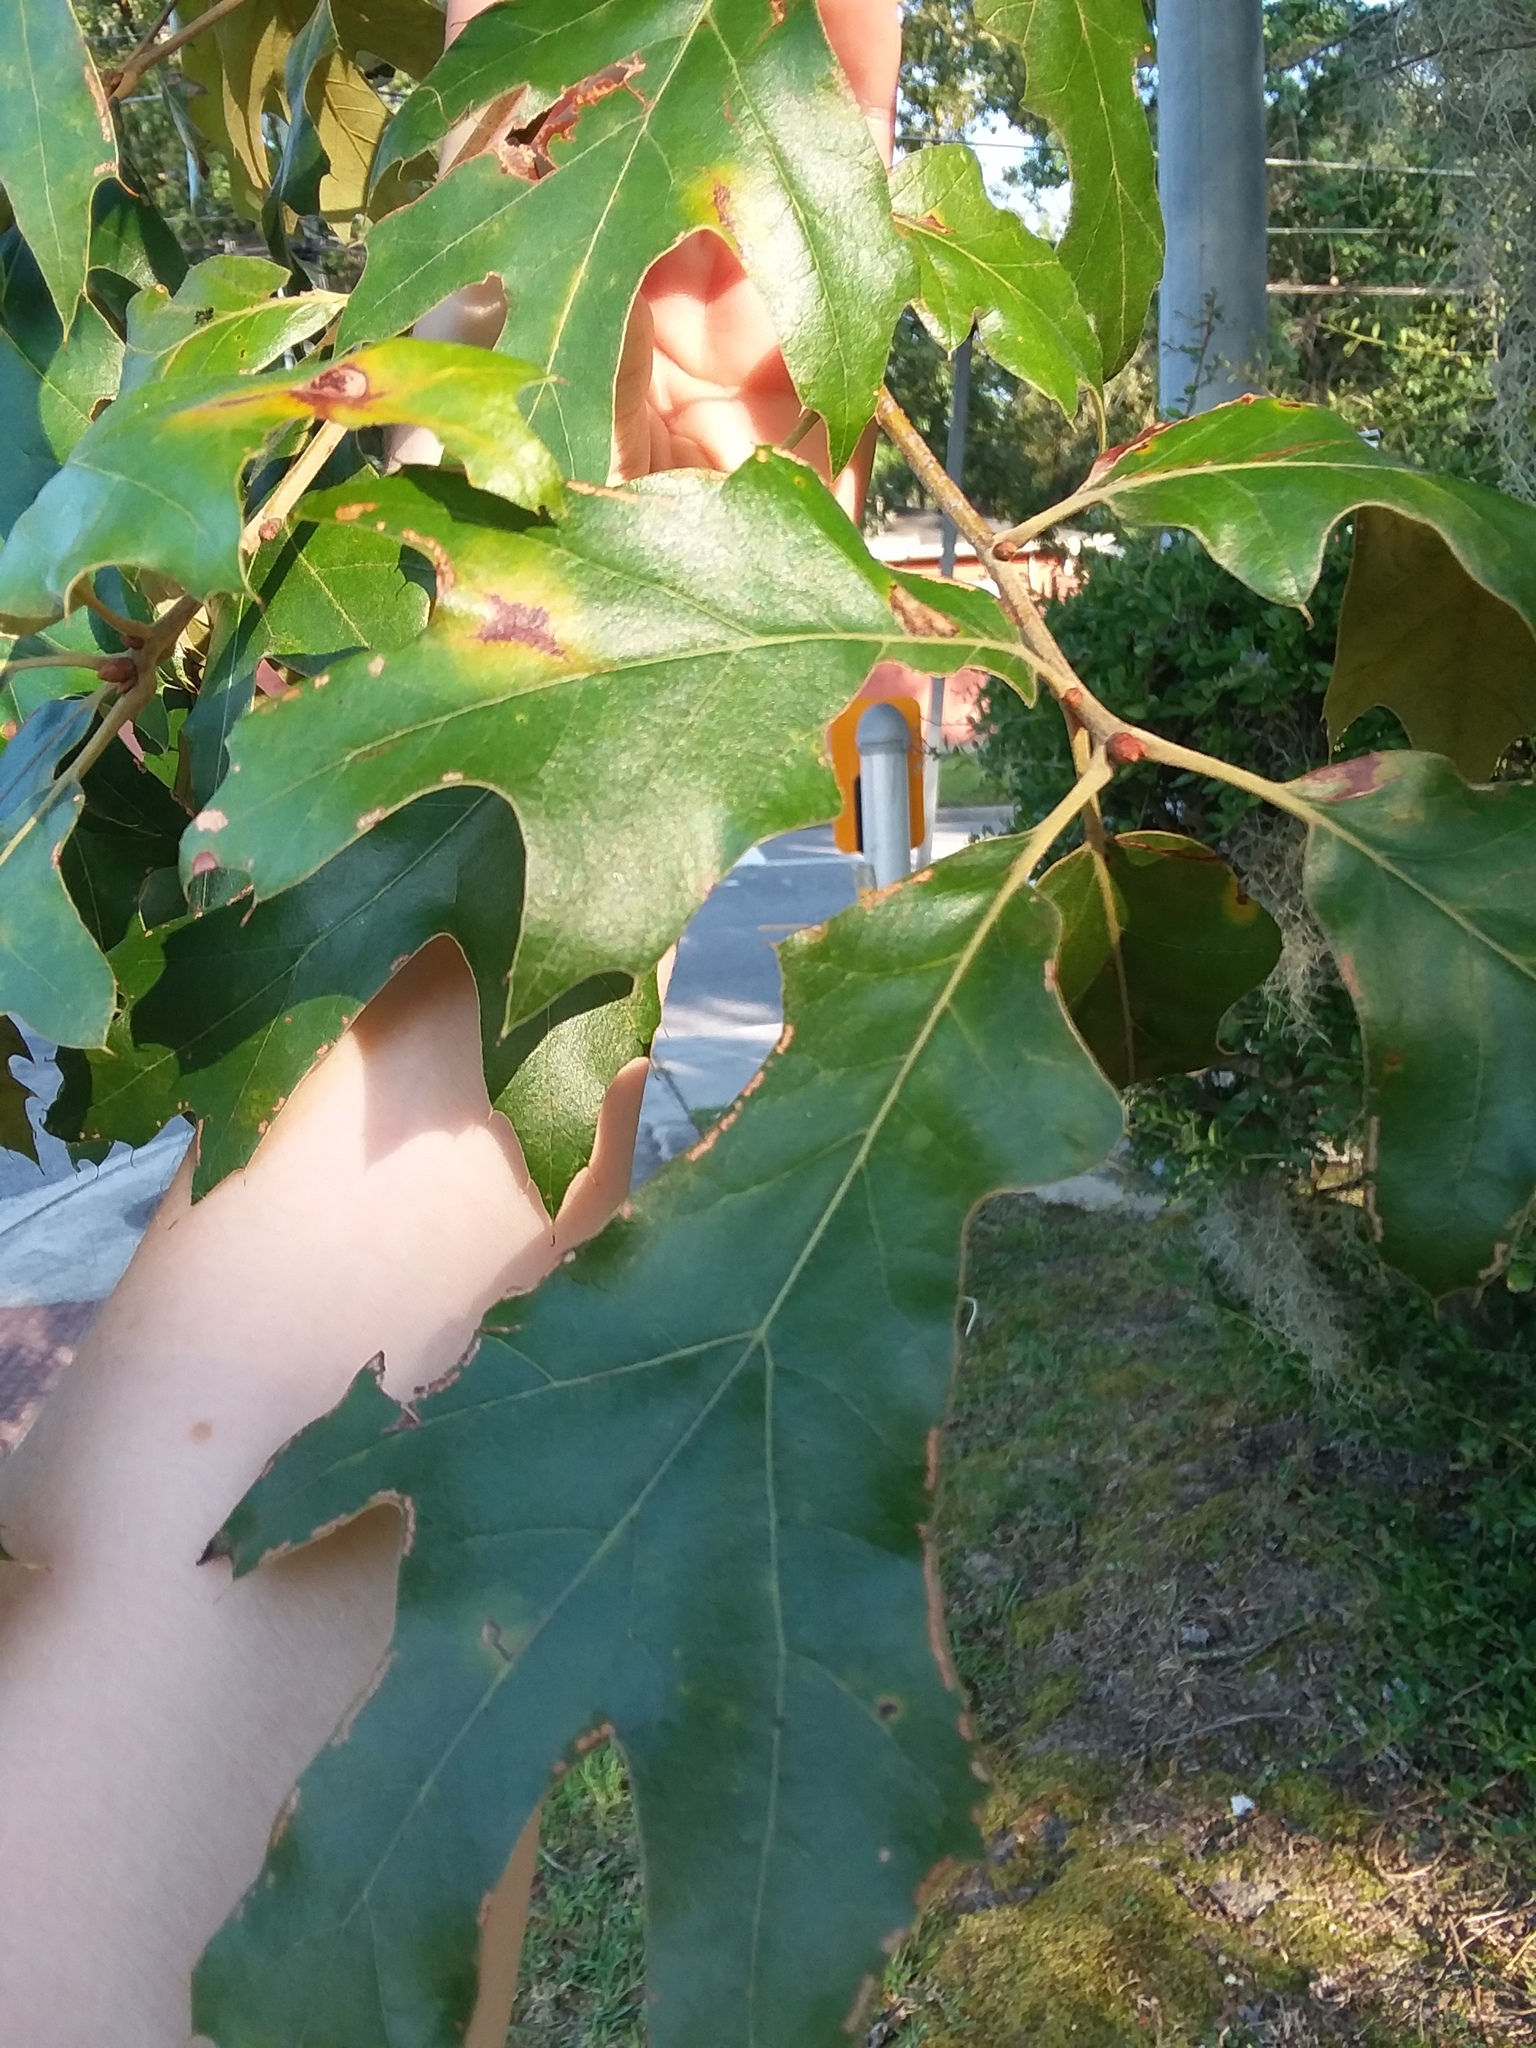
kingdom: Plantae
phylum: Tracheophyta
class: Magnoliopsida
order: Fagales
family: Fagaceae
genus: Quercus
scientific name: Quercus falcata
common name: Southern red oak
